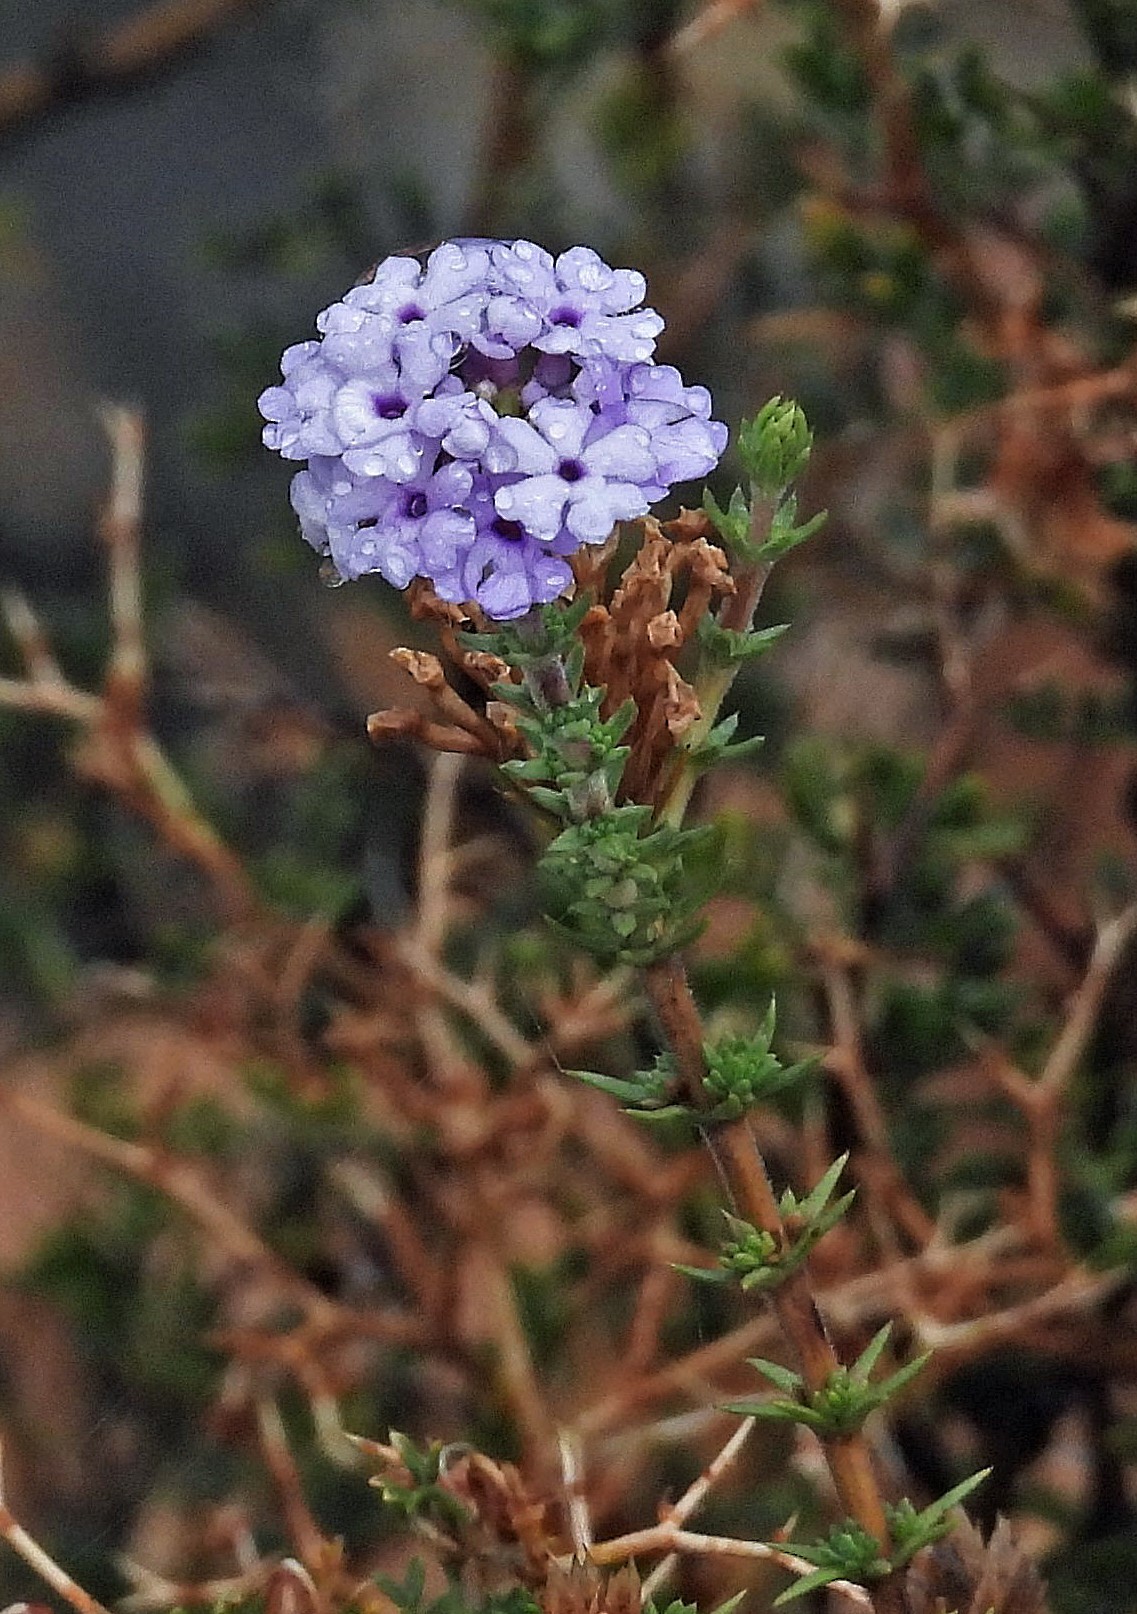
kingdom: Plantae
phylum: Tracheophyta
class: Magnoliopsida
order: Lamiales
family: Verbenaceae
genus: Junellia
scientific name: Junellia juniperina
